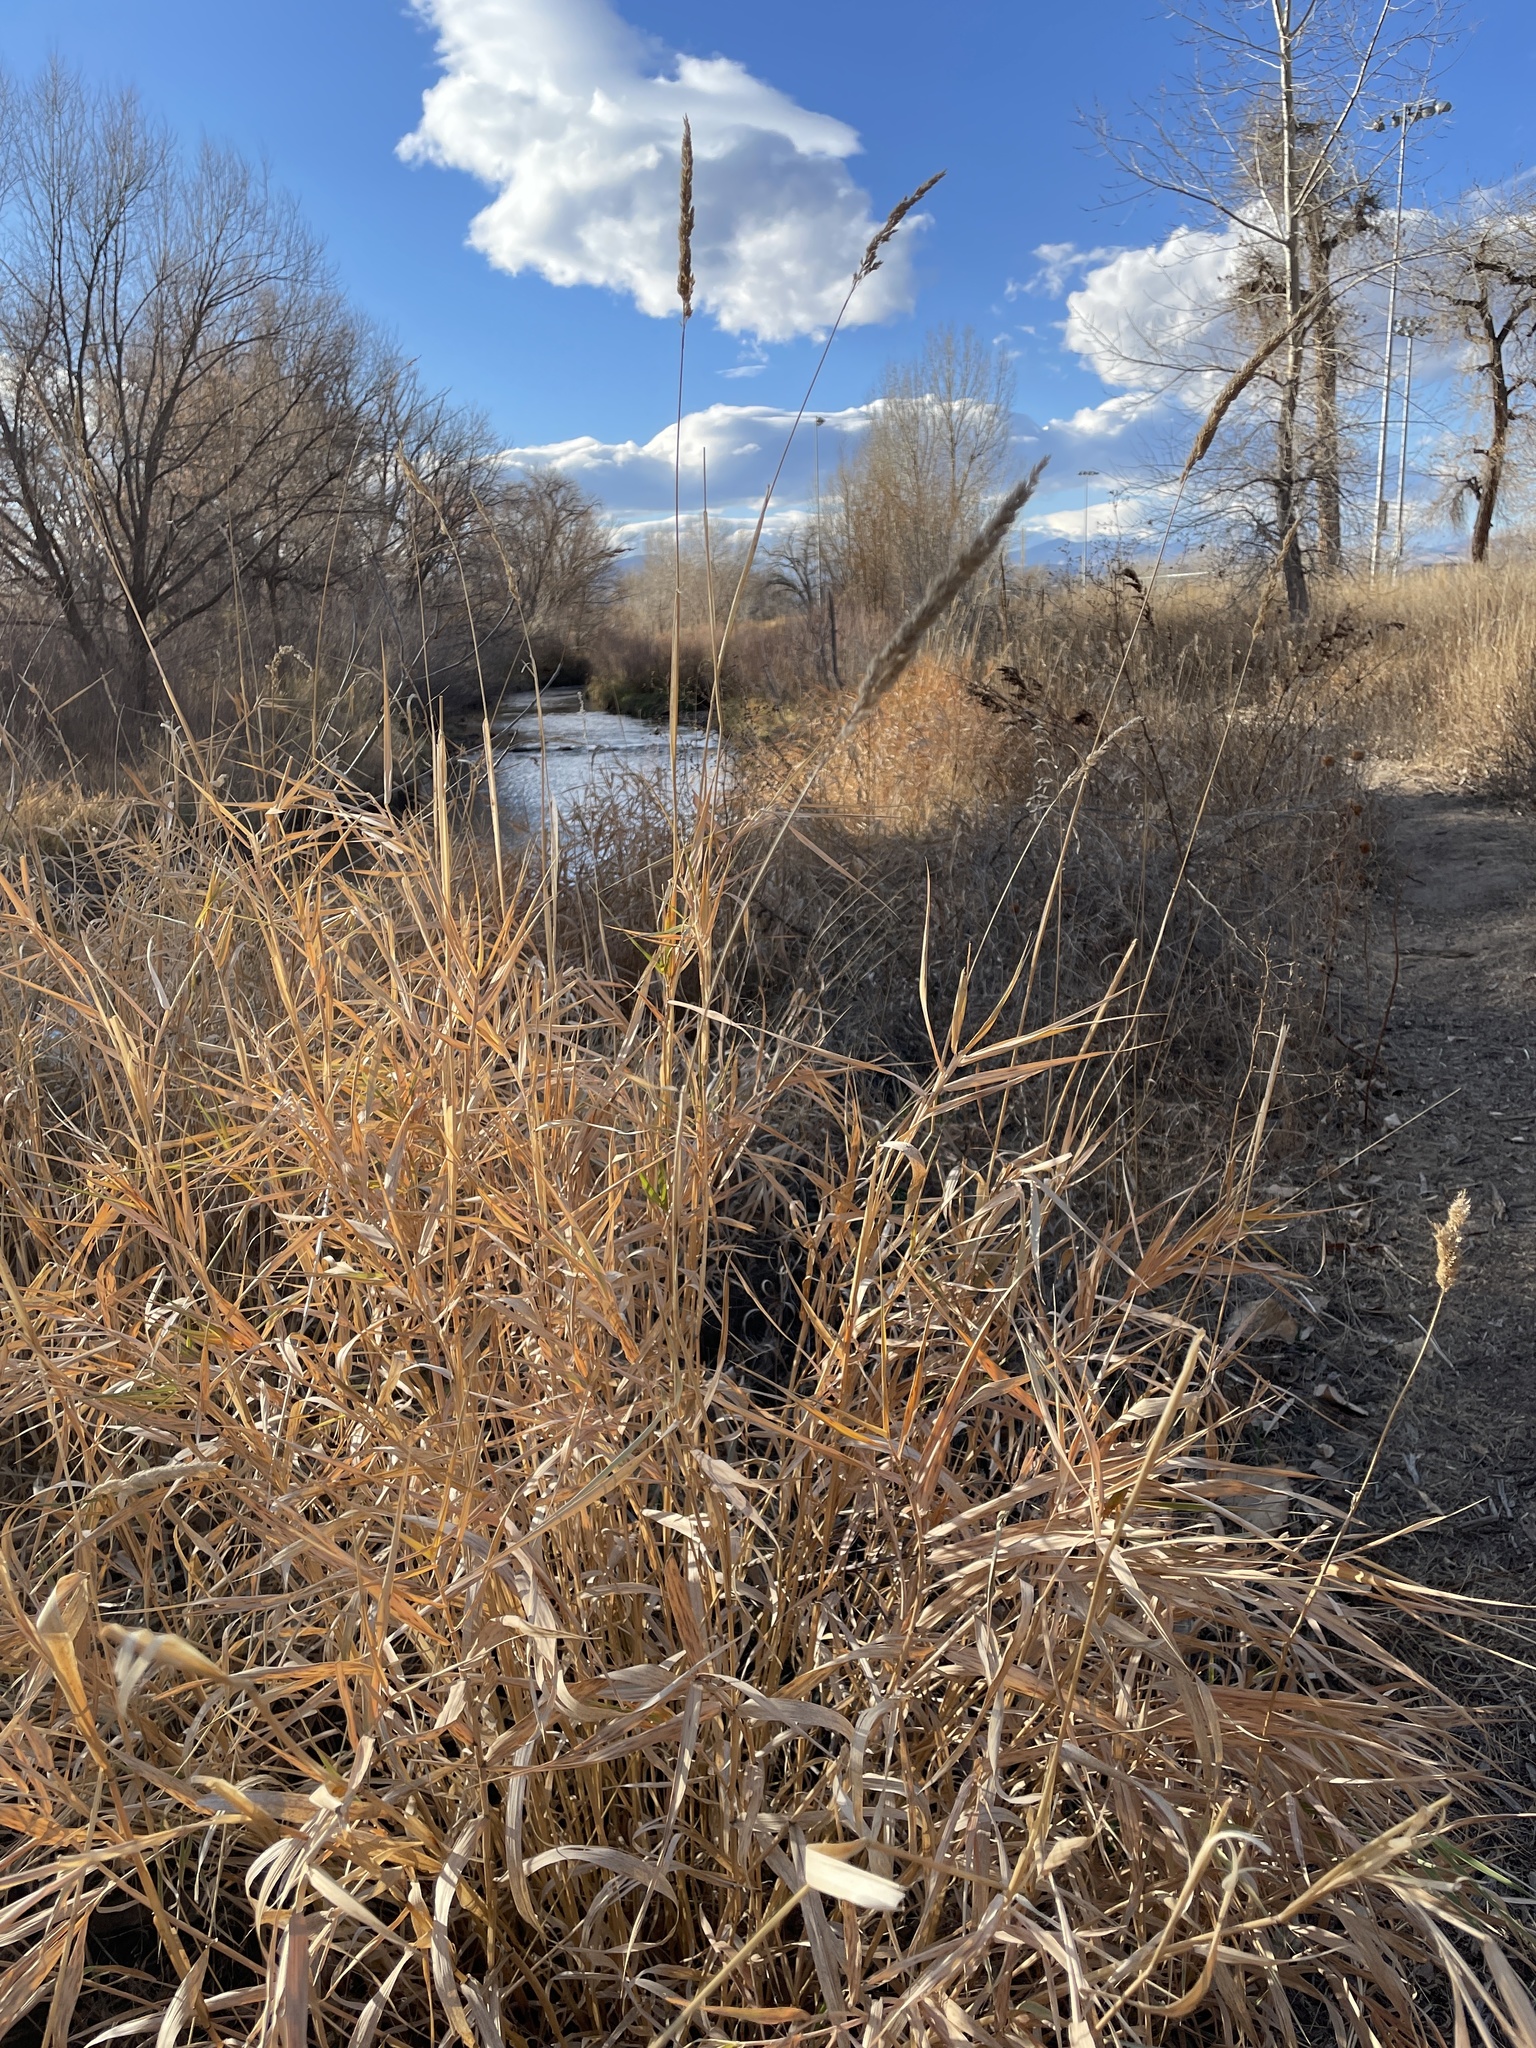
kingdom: Plantae
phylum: Tracheophyta
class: Liliopsida
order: Poales
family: Poaceae
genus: Phalaris
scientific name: Phalaris arundinacea
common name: Reed canary-grass
